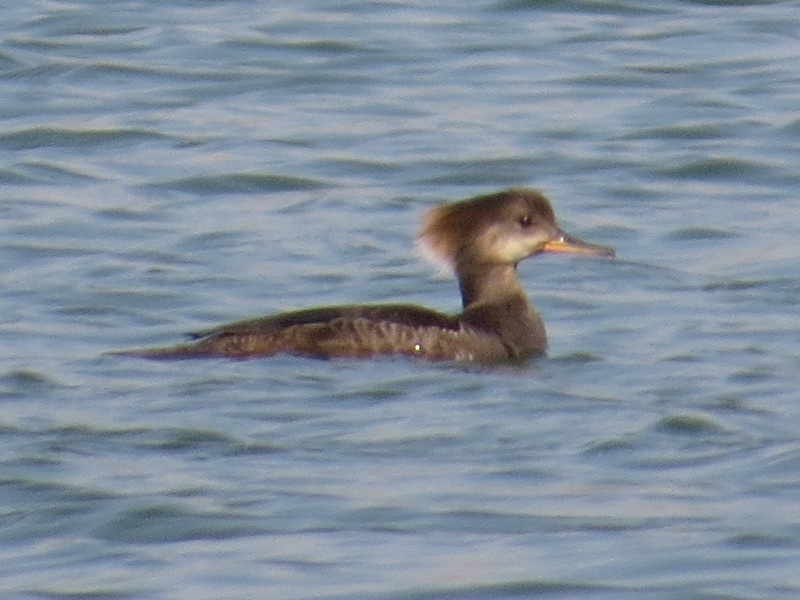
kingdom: Animalia
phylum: Chordata
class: Aves
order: Anseriformes
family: Anatidae
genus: Lophodytes
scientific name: Lophodytes cucullatus
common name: Hooded merganser
